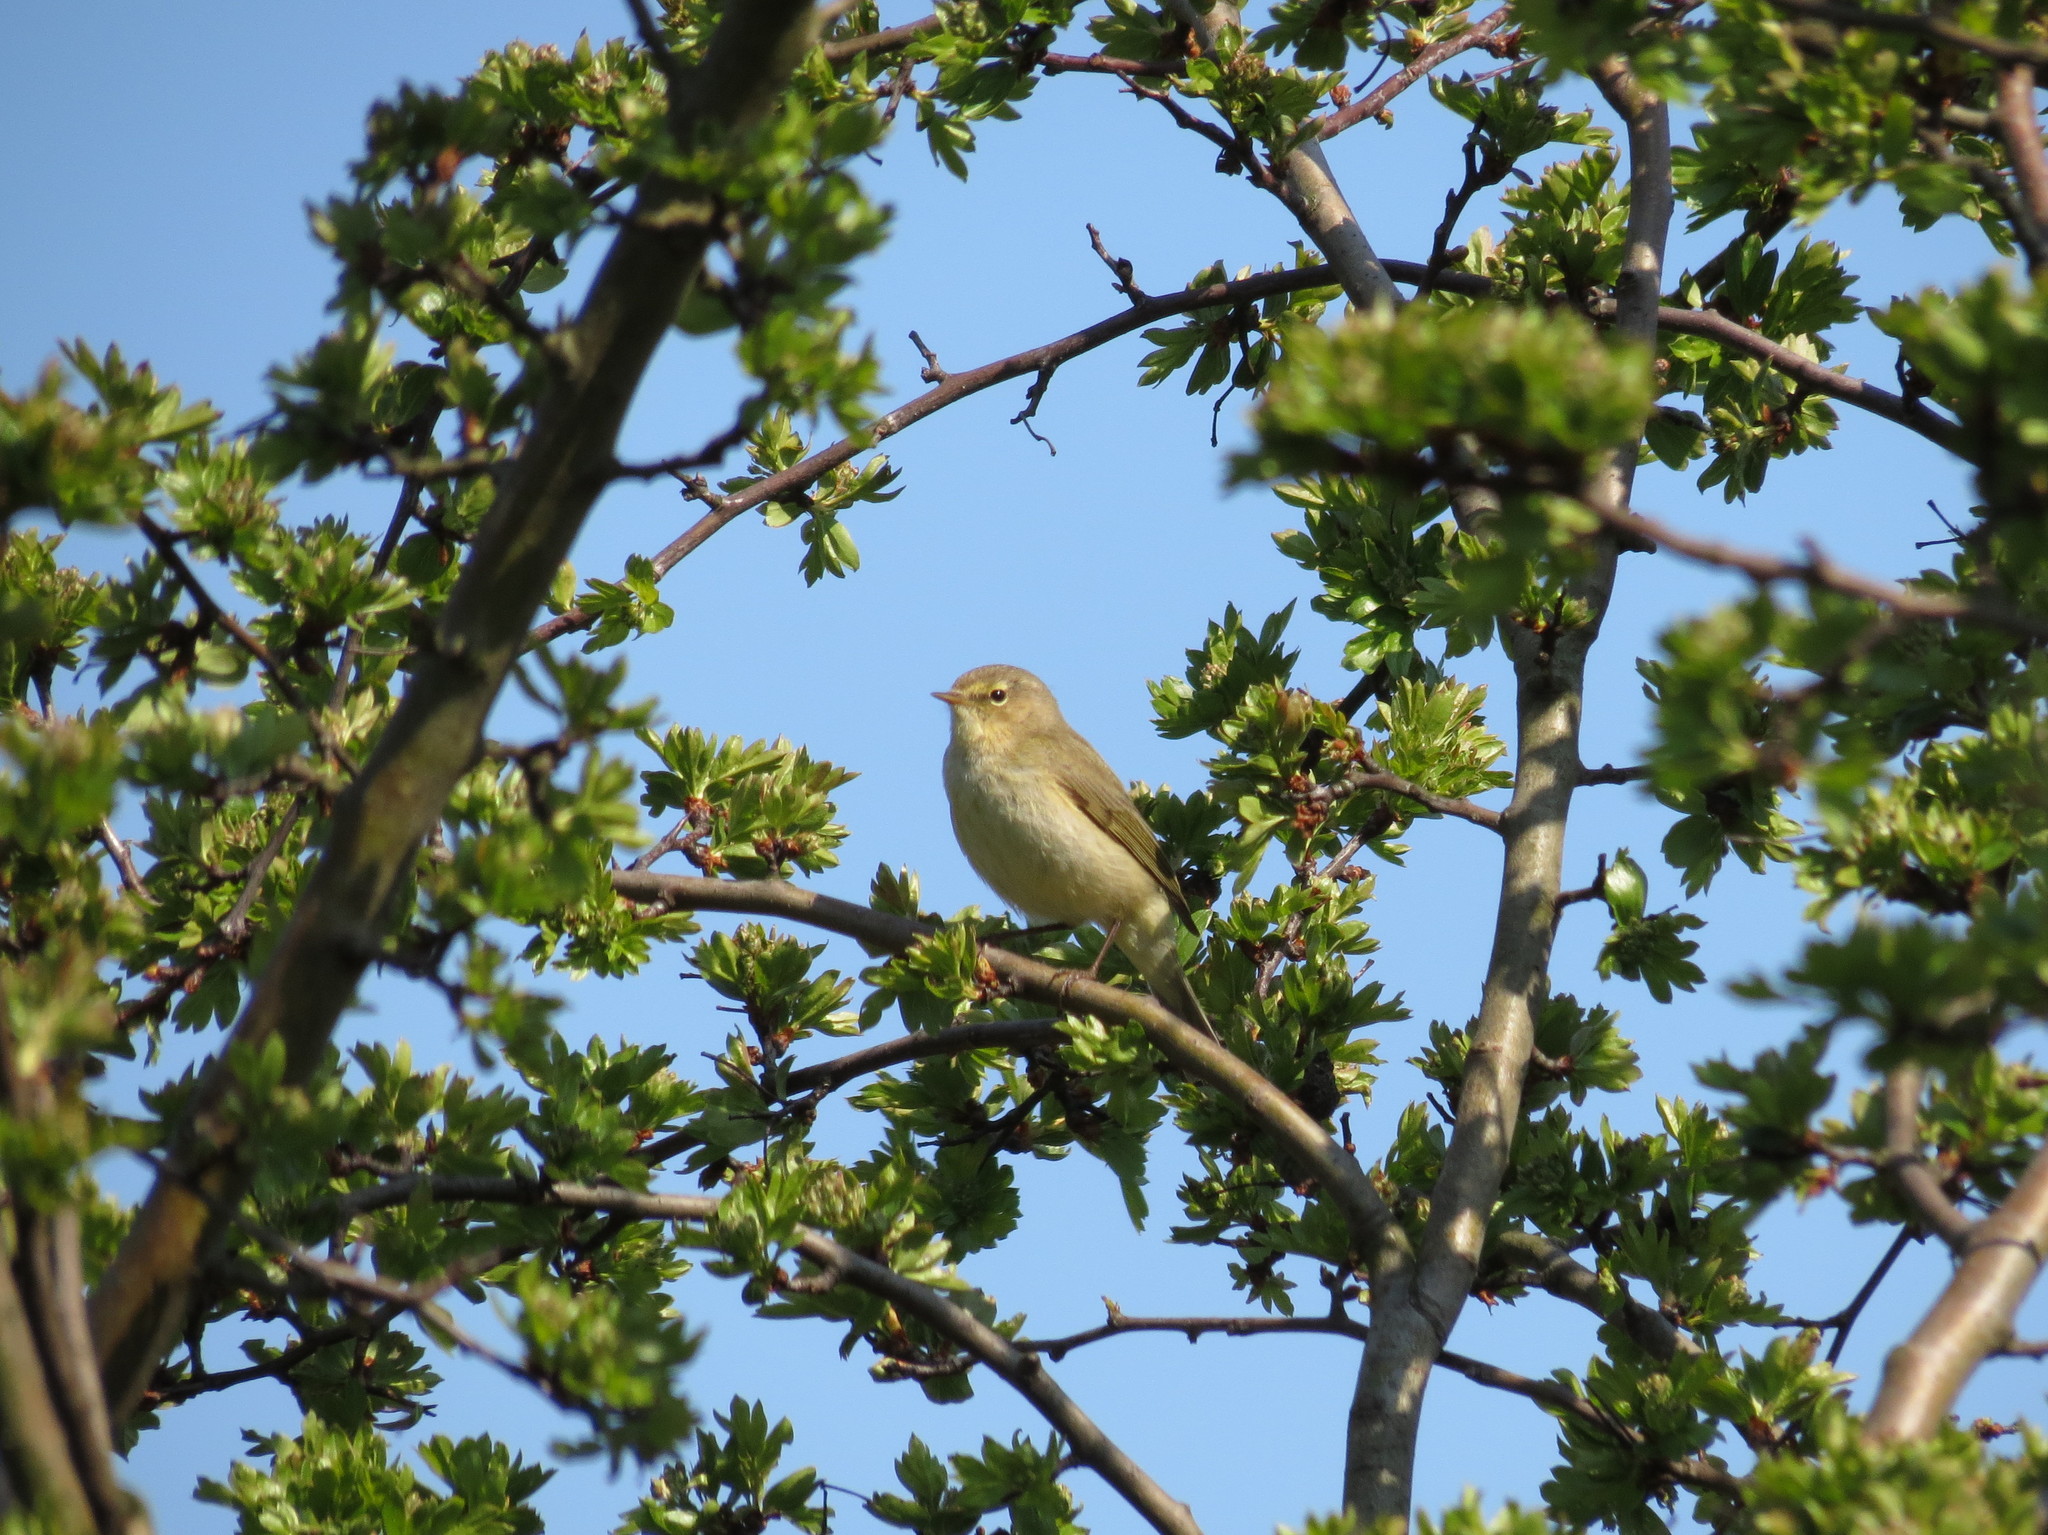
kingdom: Animalia
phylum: Chordata
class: Aves
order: Passeriformes
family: Phylloscopidae
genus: Phylloscopus
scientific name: Phylloscopus collybita
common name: Common chiffchaff
